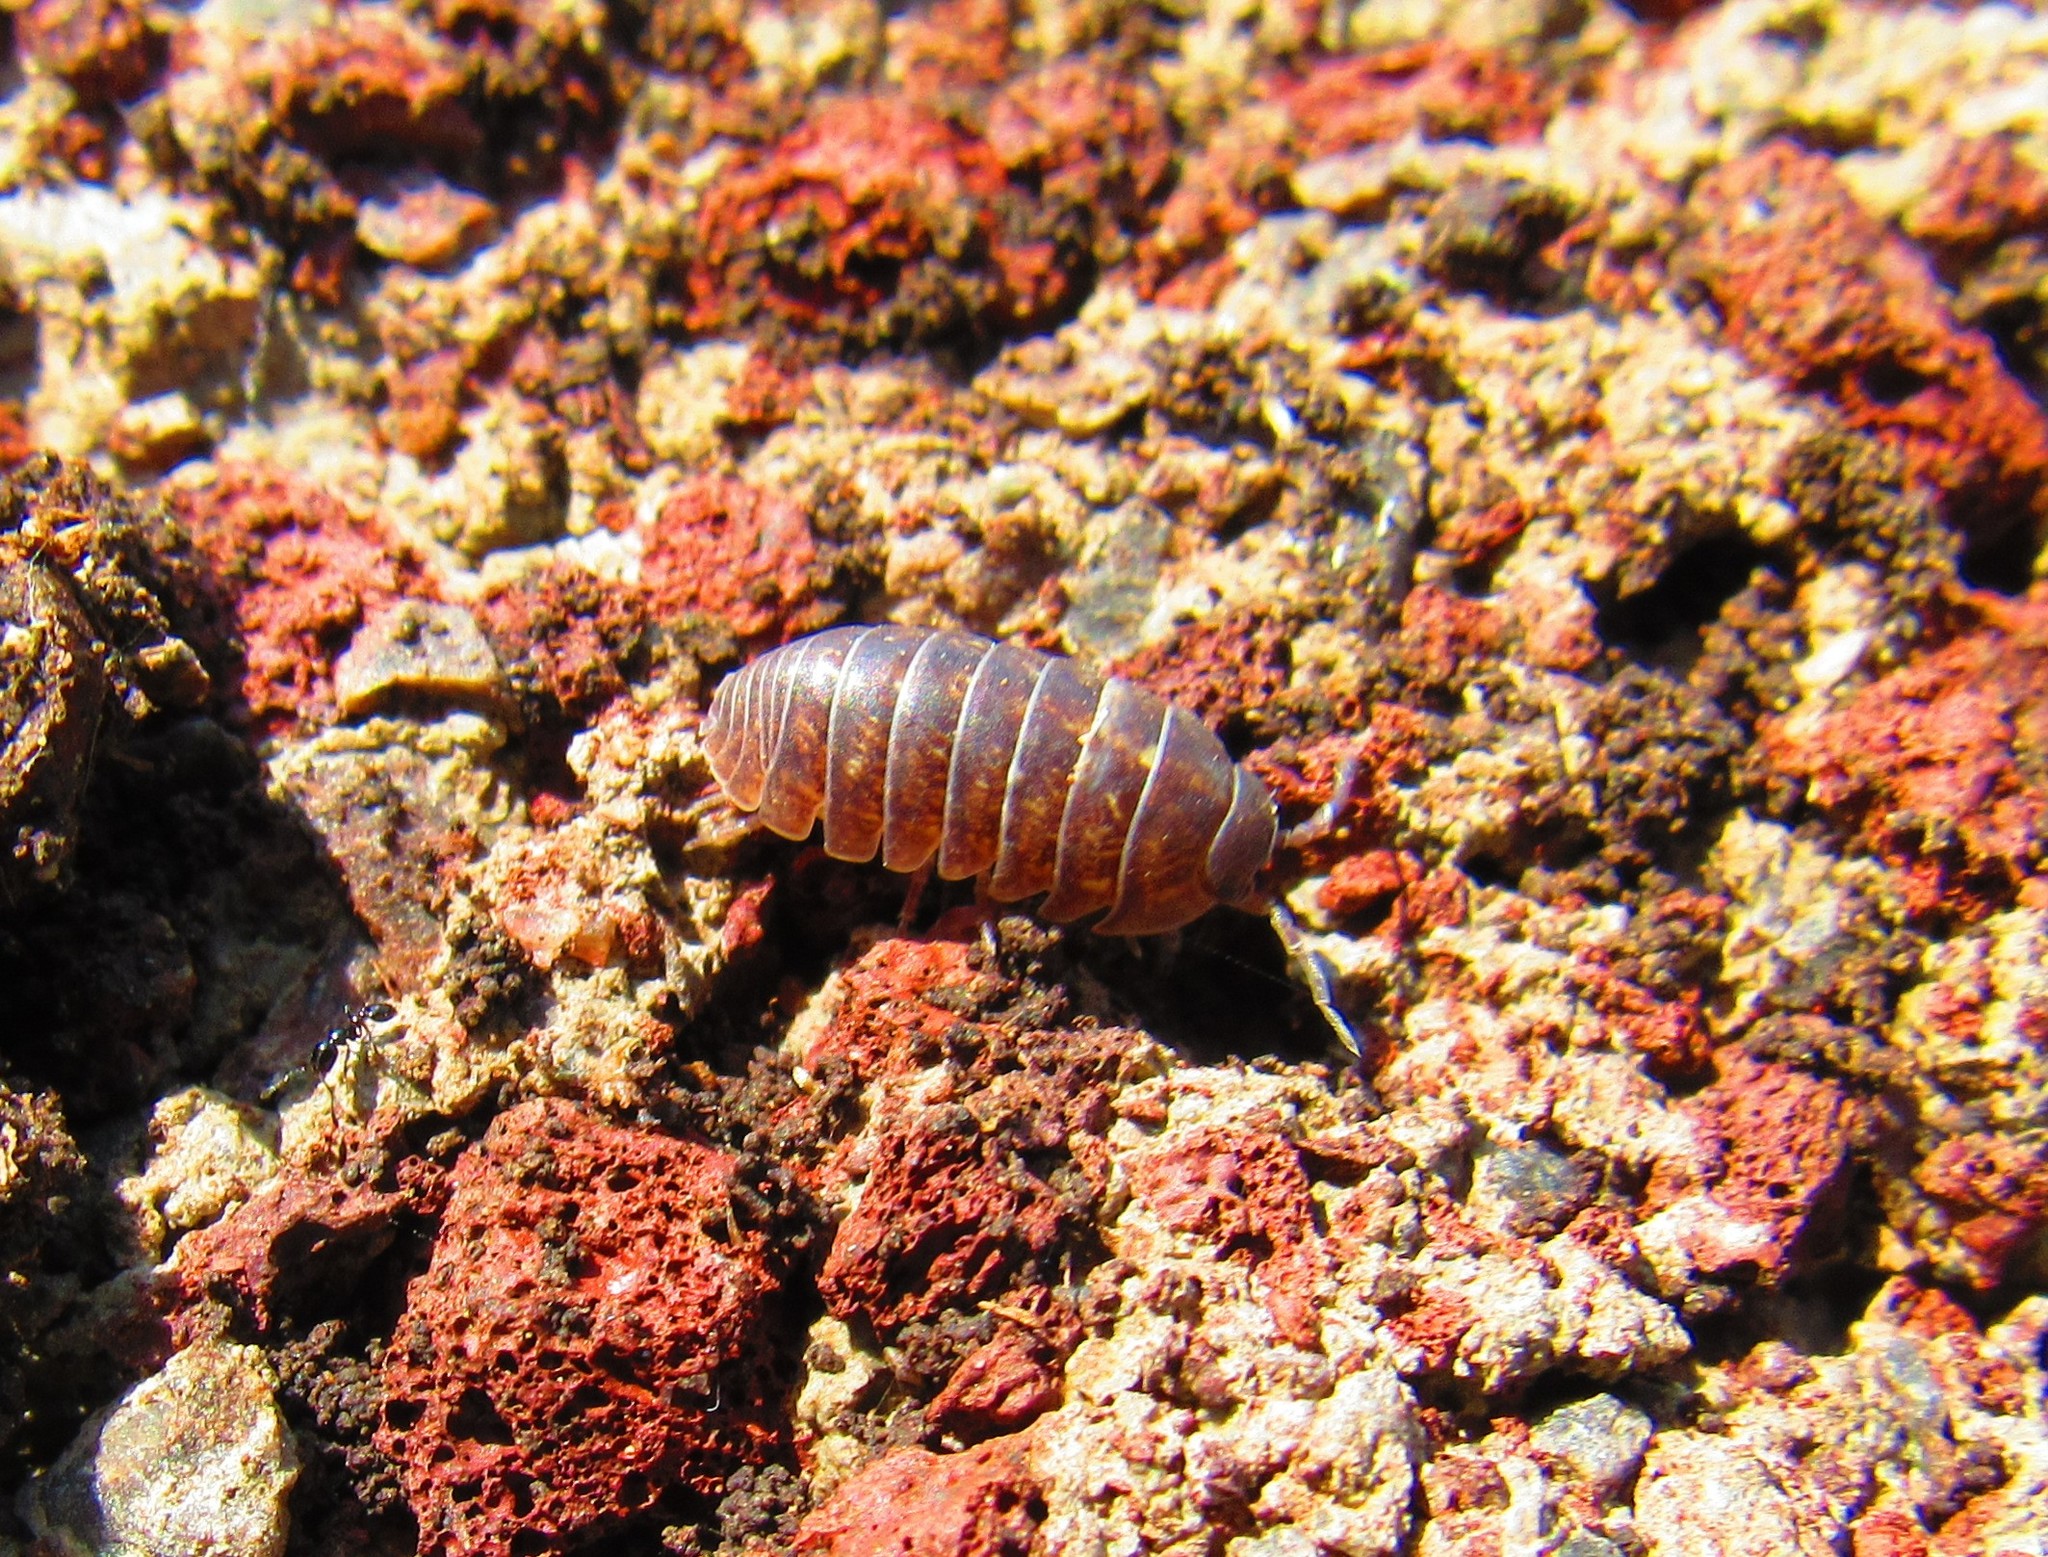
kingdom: Animalia
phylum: Arthropoda
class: Malacostraca
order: Isopoda
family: Armadillidiidae
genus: Armadillidium
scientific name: Armadillidium vulgare
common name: Common pill woodlouse
